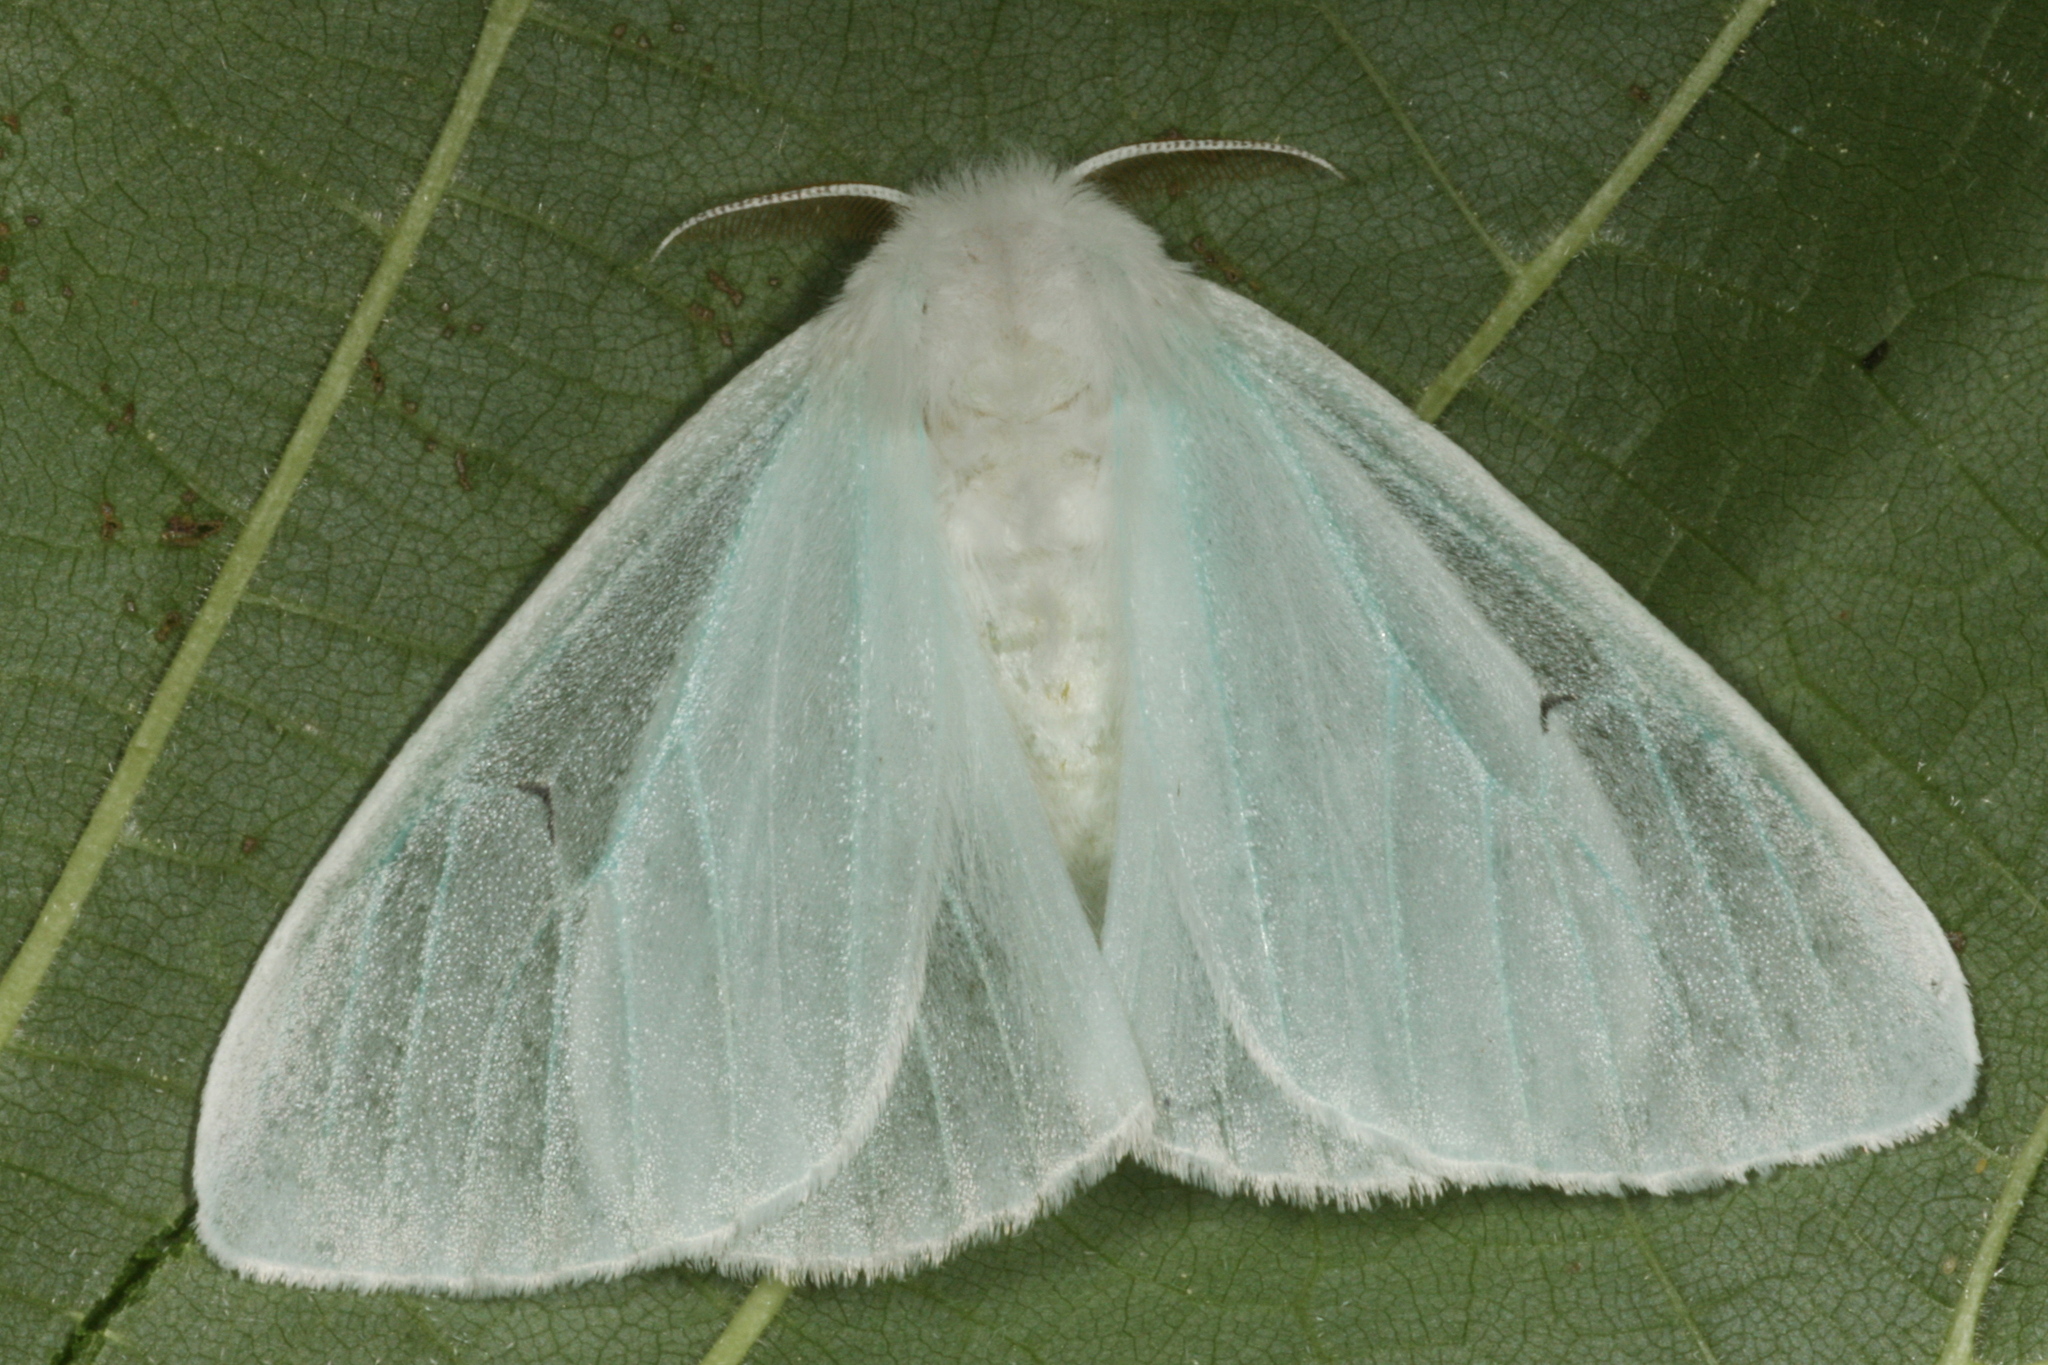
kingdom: Animalia
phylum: Arthropoda
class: Insecta
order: Lepidoptera
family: Erebidae
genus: Arctornis
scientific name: Arctornis l-nigrum
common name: Black v moth
